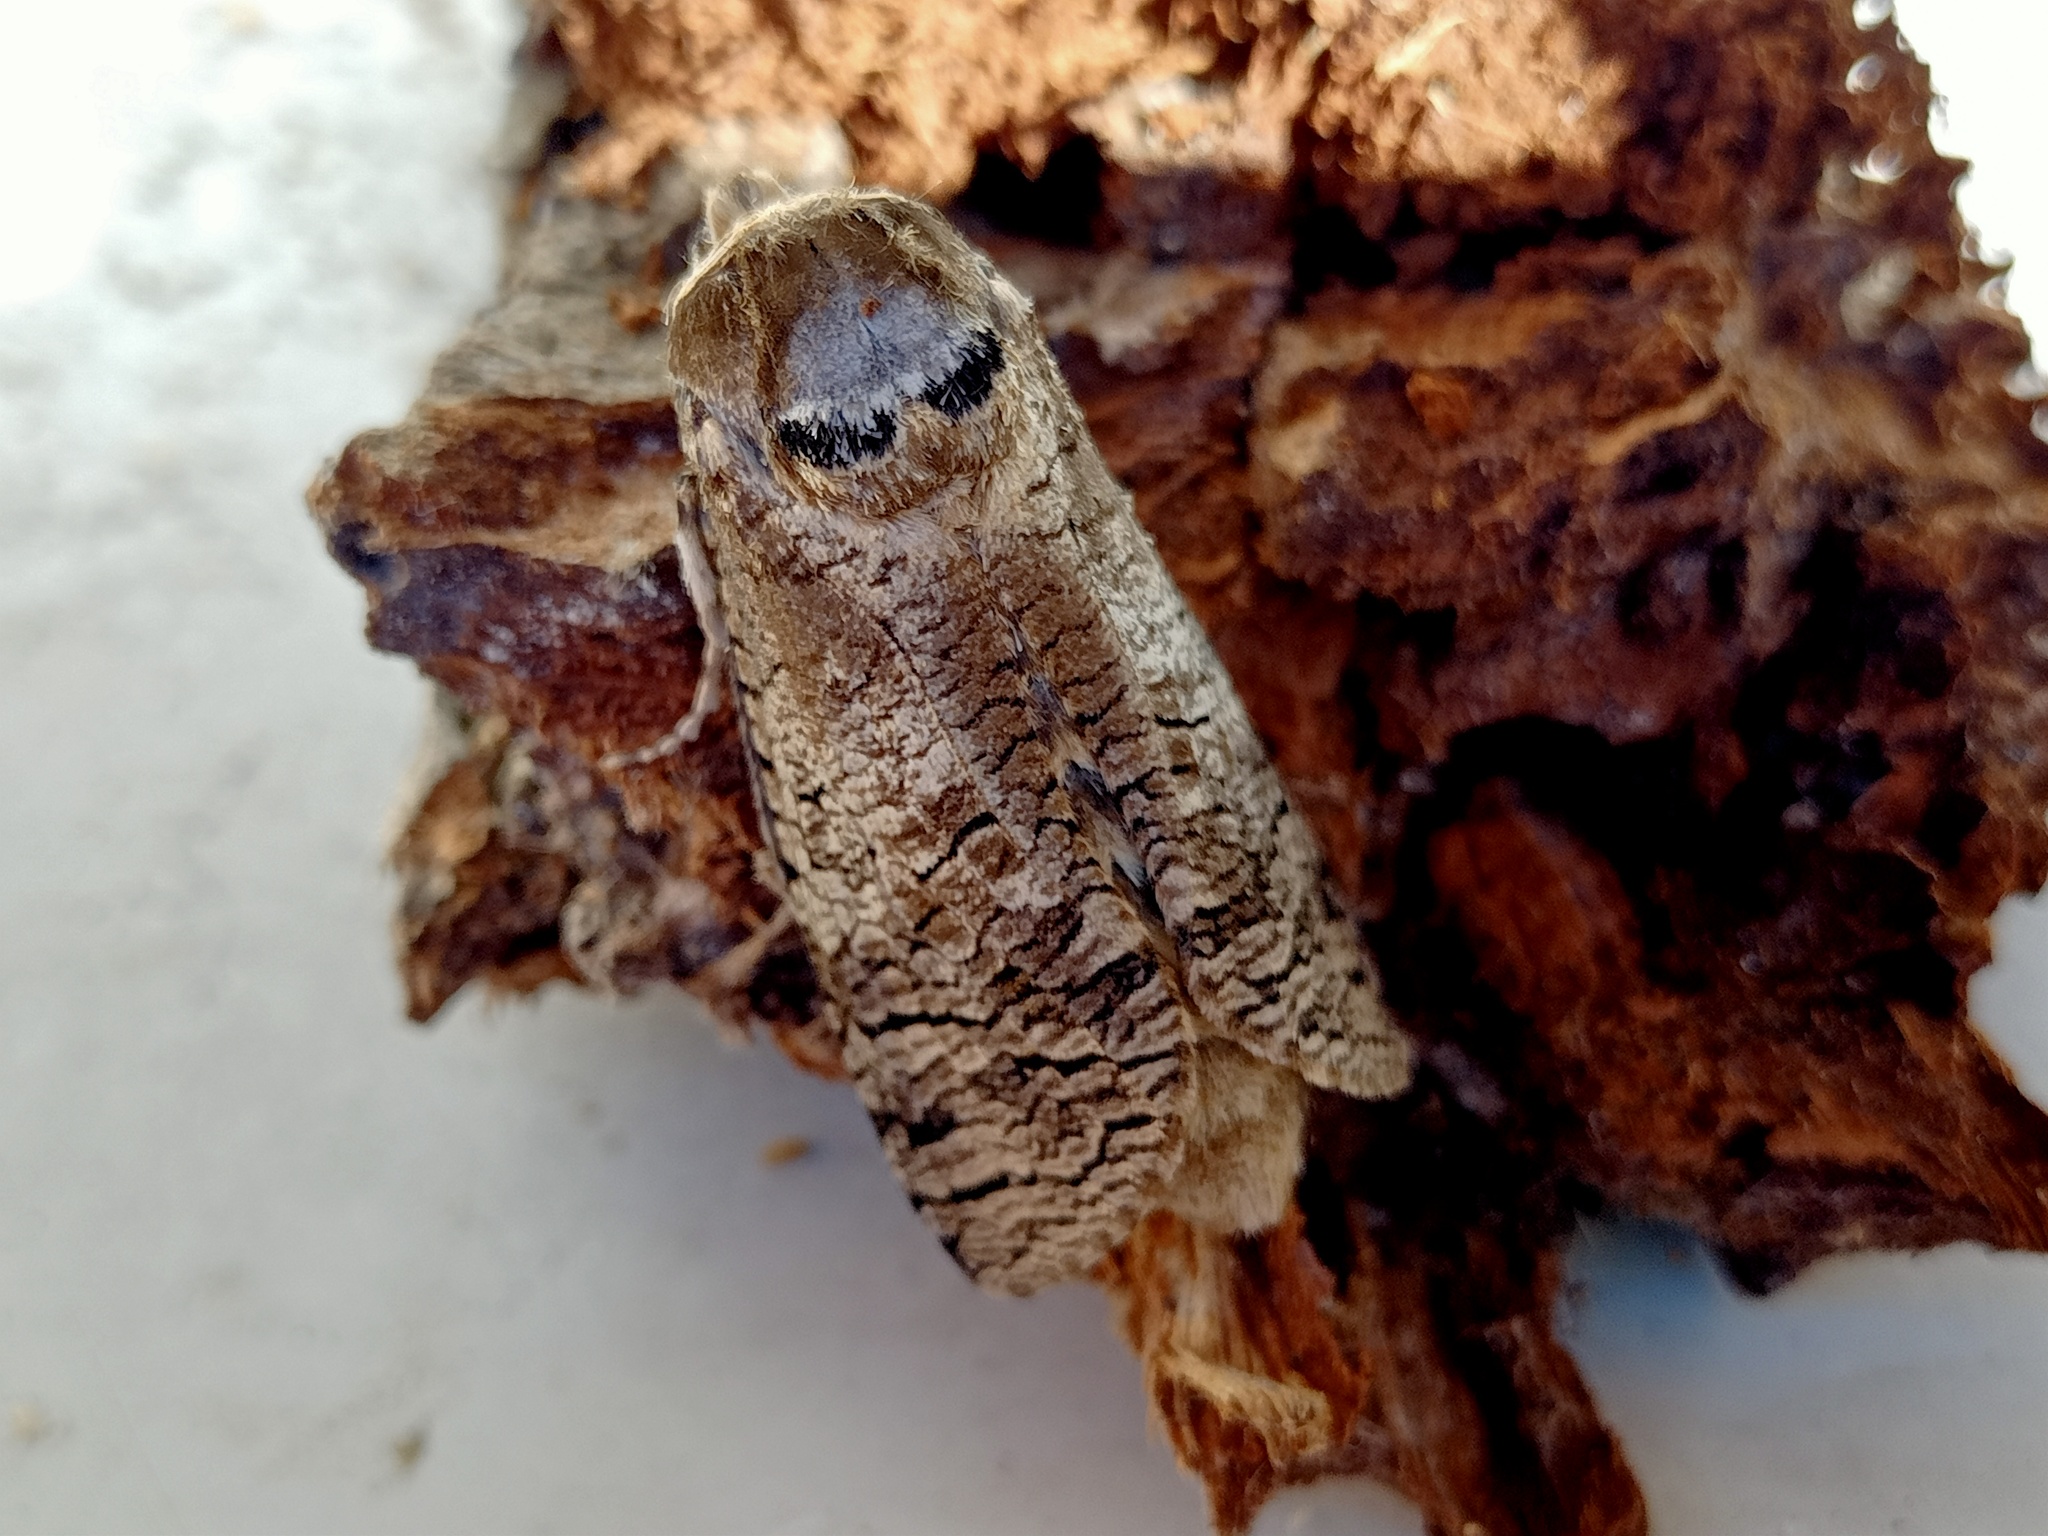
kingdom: Animalia
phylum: Arthropoda
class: Insecta
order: Lepidoptera
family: Cossidae
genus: Cossus
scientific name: Cossus cossus
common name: Goat moth
